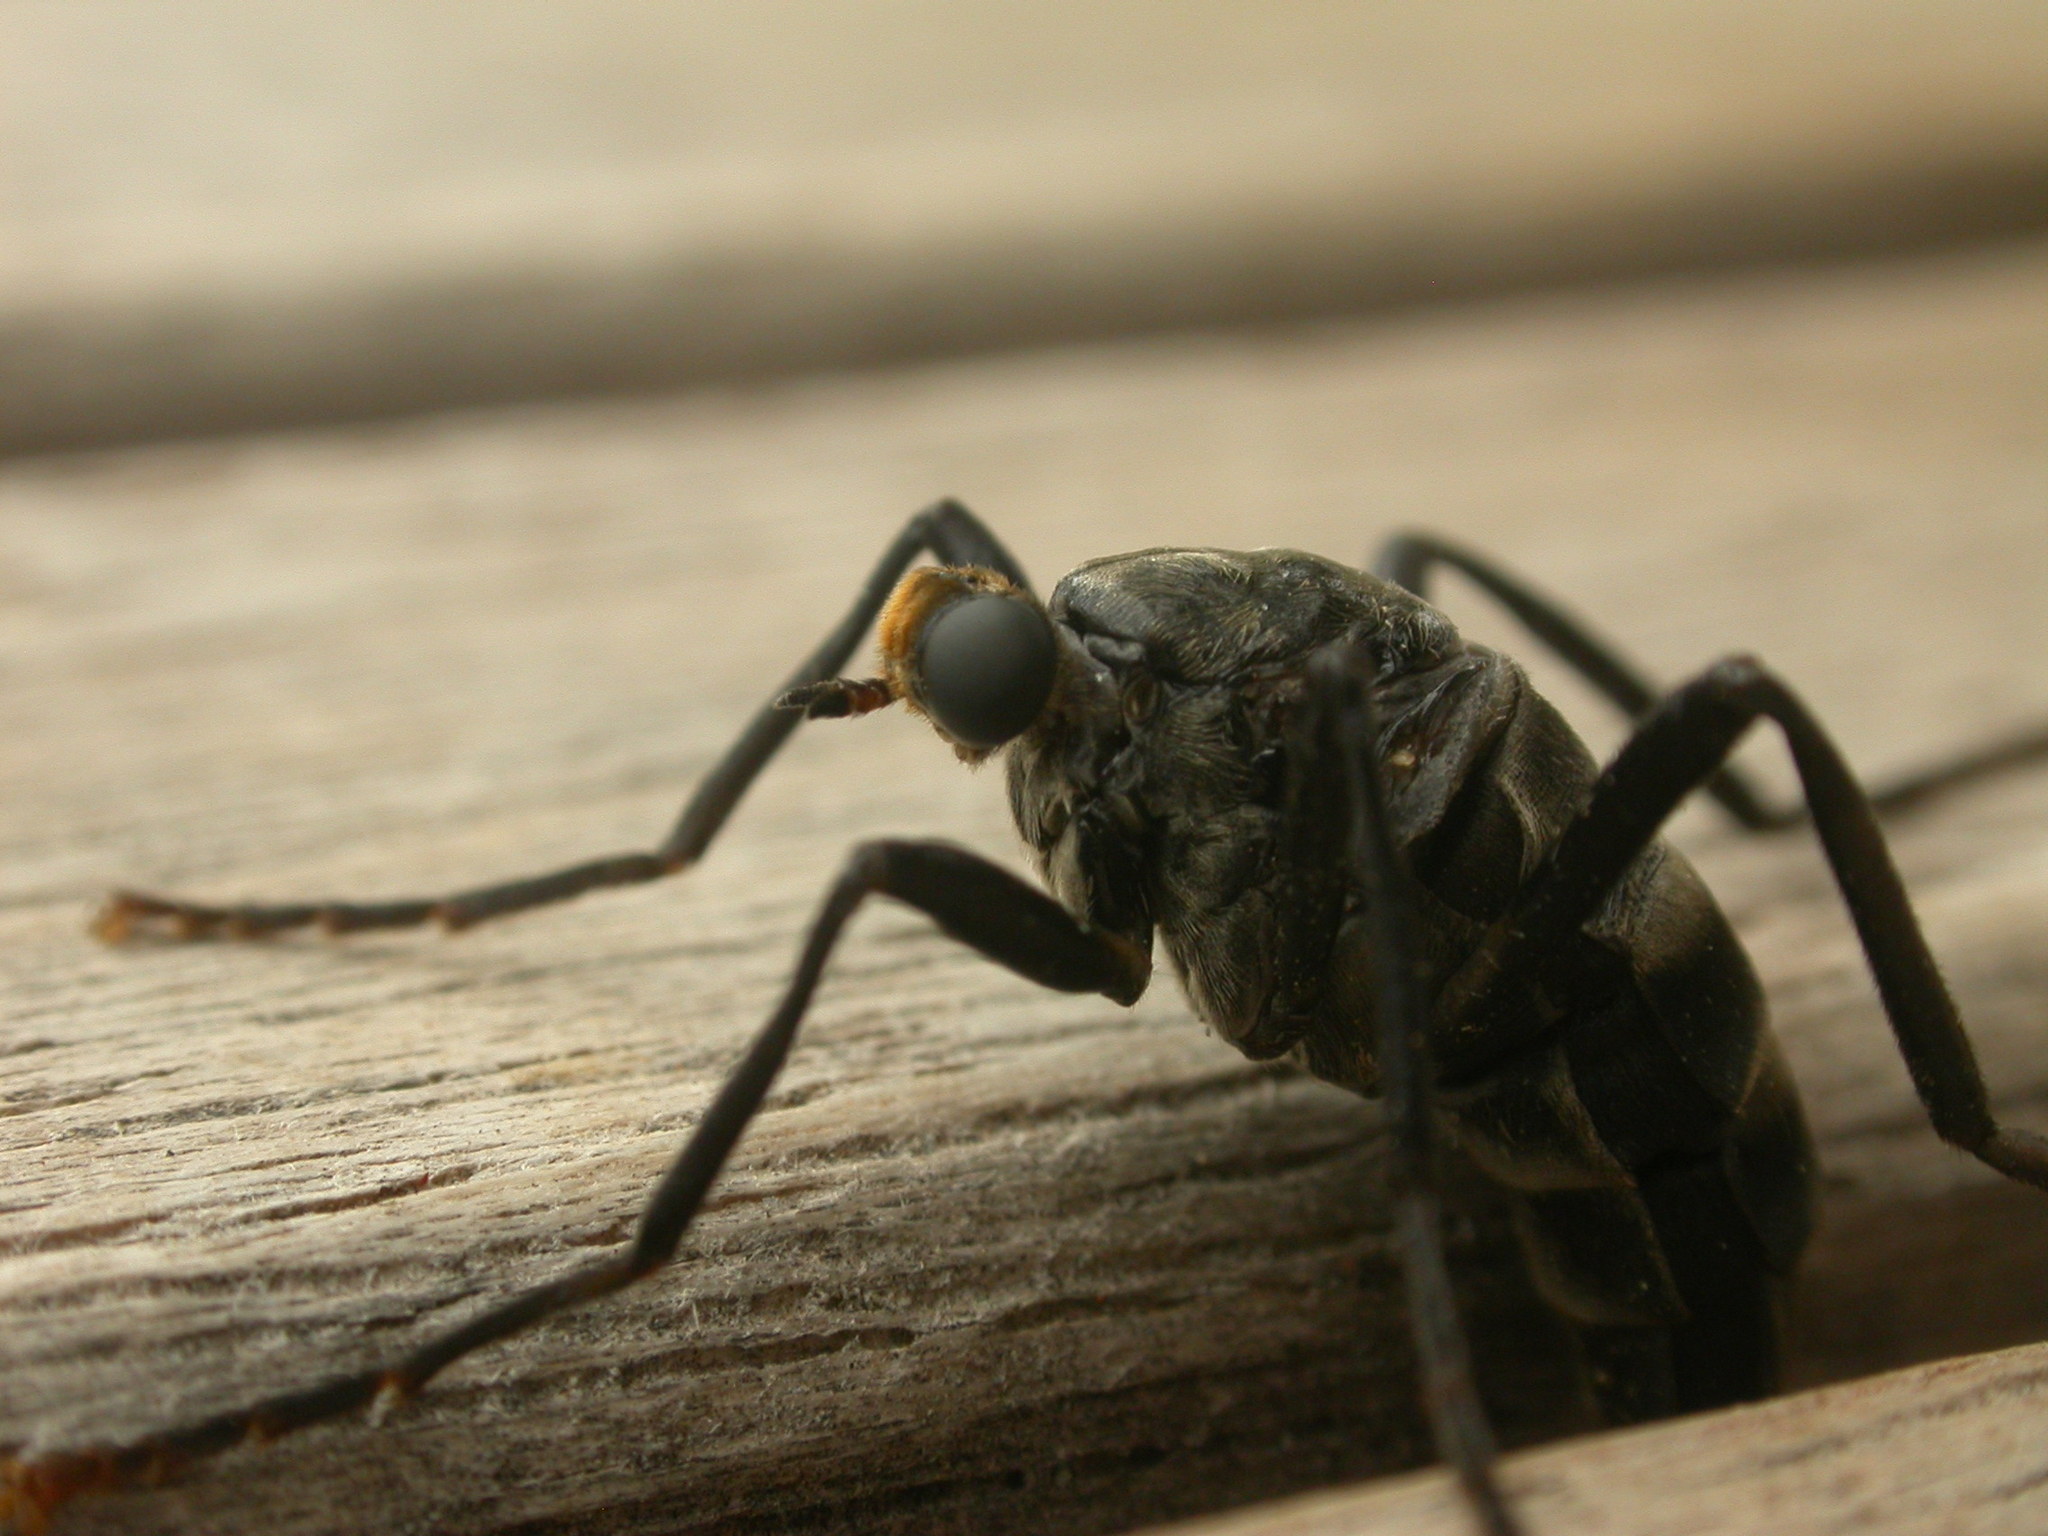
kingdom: Animalia
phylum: Arthropoda
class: Insecta
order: Diptera
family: Stratiomyidae
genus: Boreoides
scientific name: Boreoides subulatus
